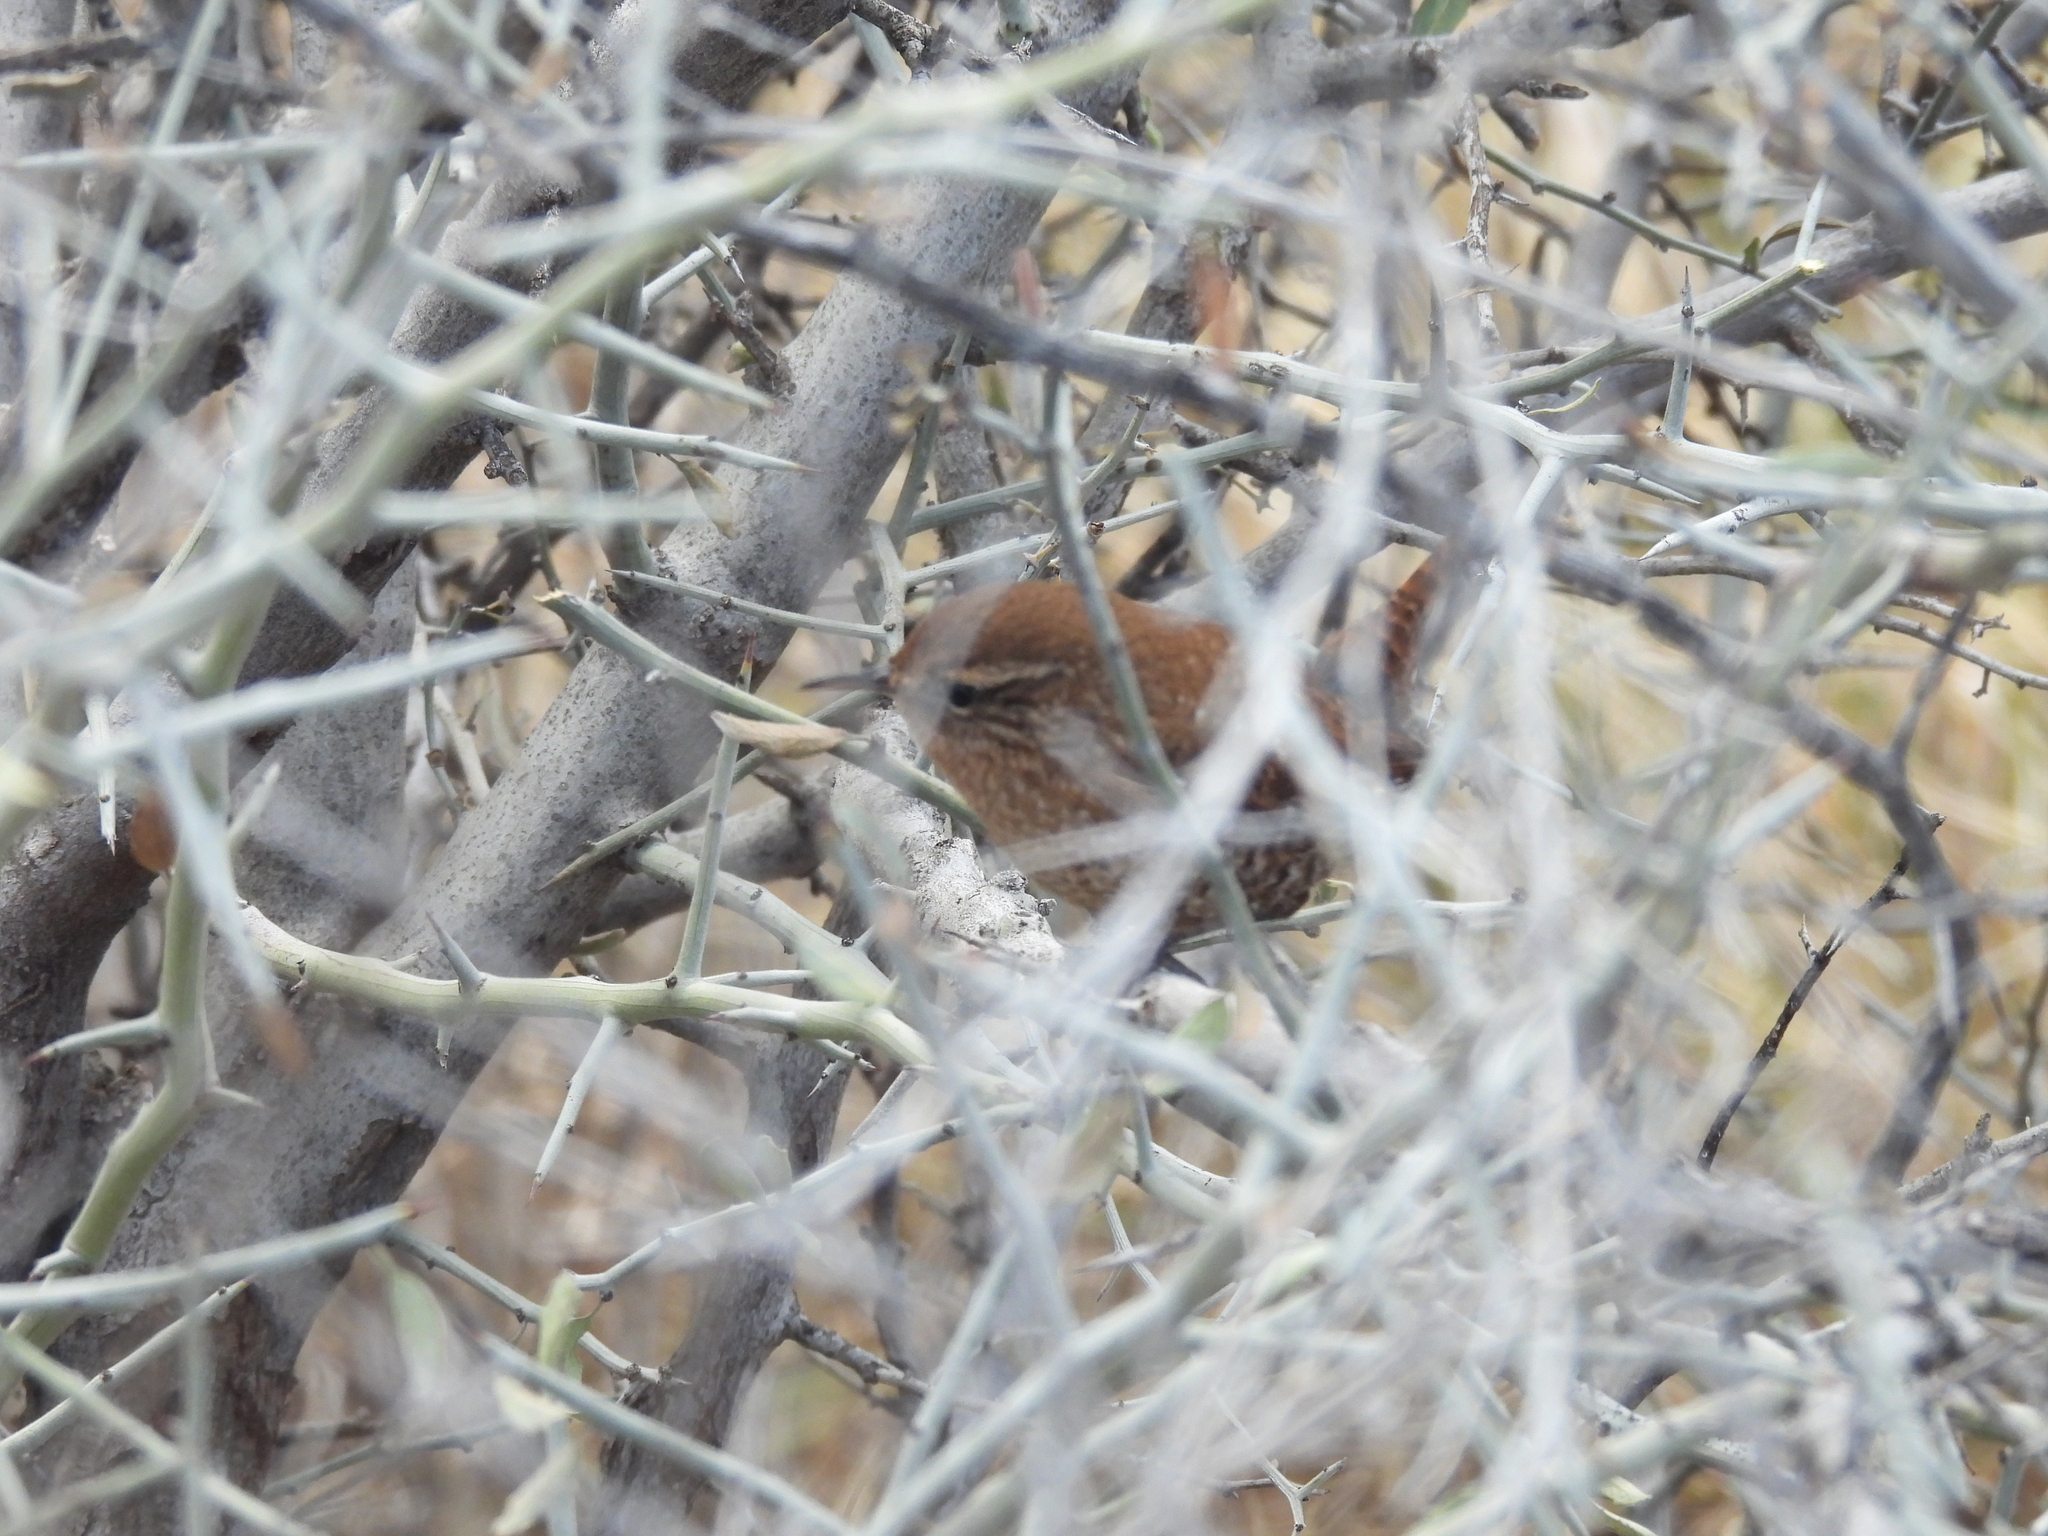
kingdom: Animalia
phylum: Chordata
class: Aves
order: Passeriformes
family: Troglodytidae
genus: Troglodytes
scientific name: Troglodytes hiemalis
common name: Winter wren
